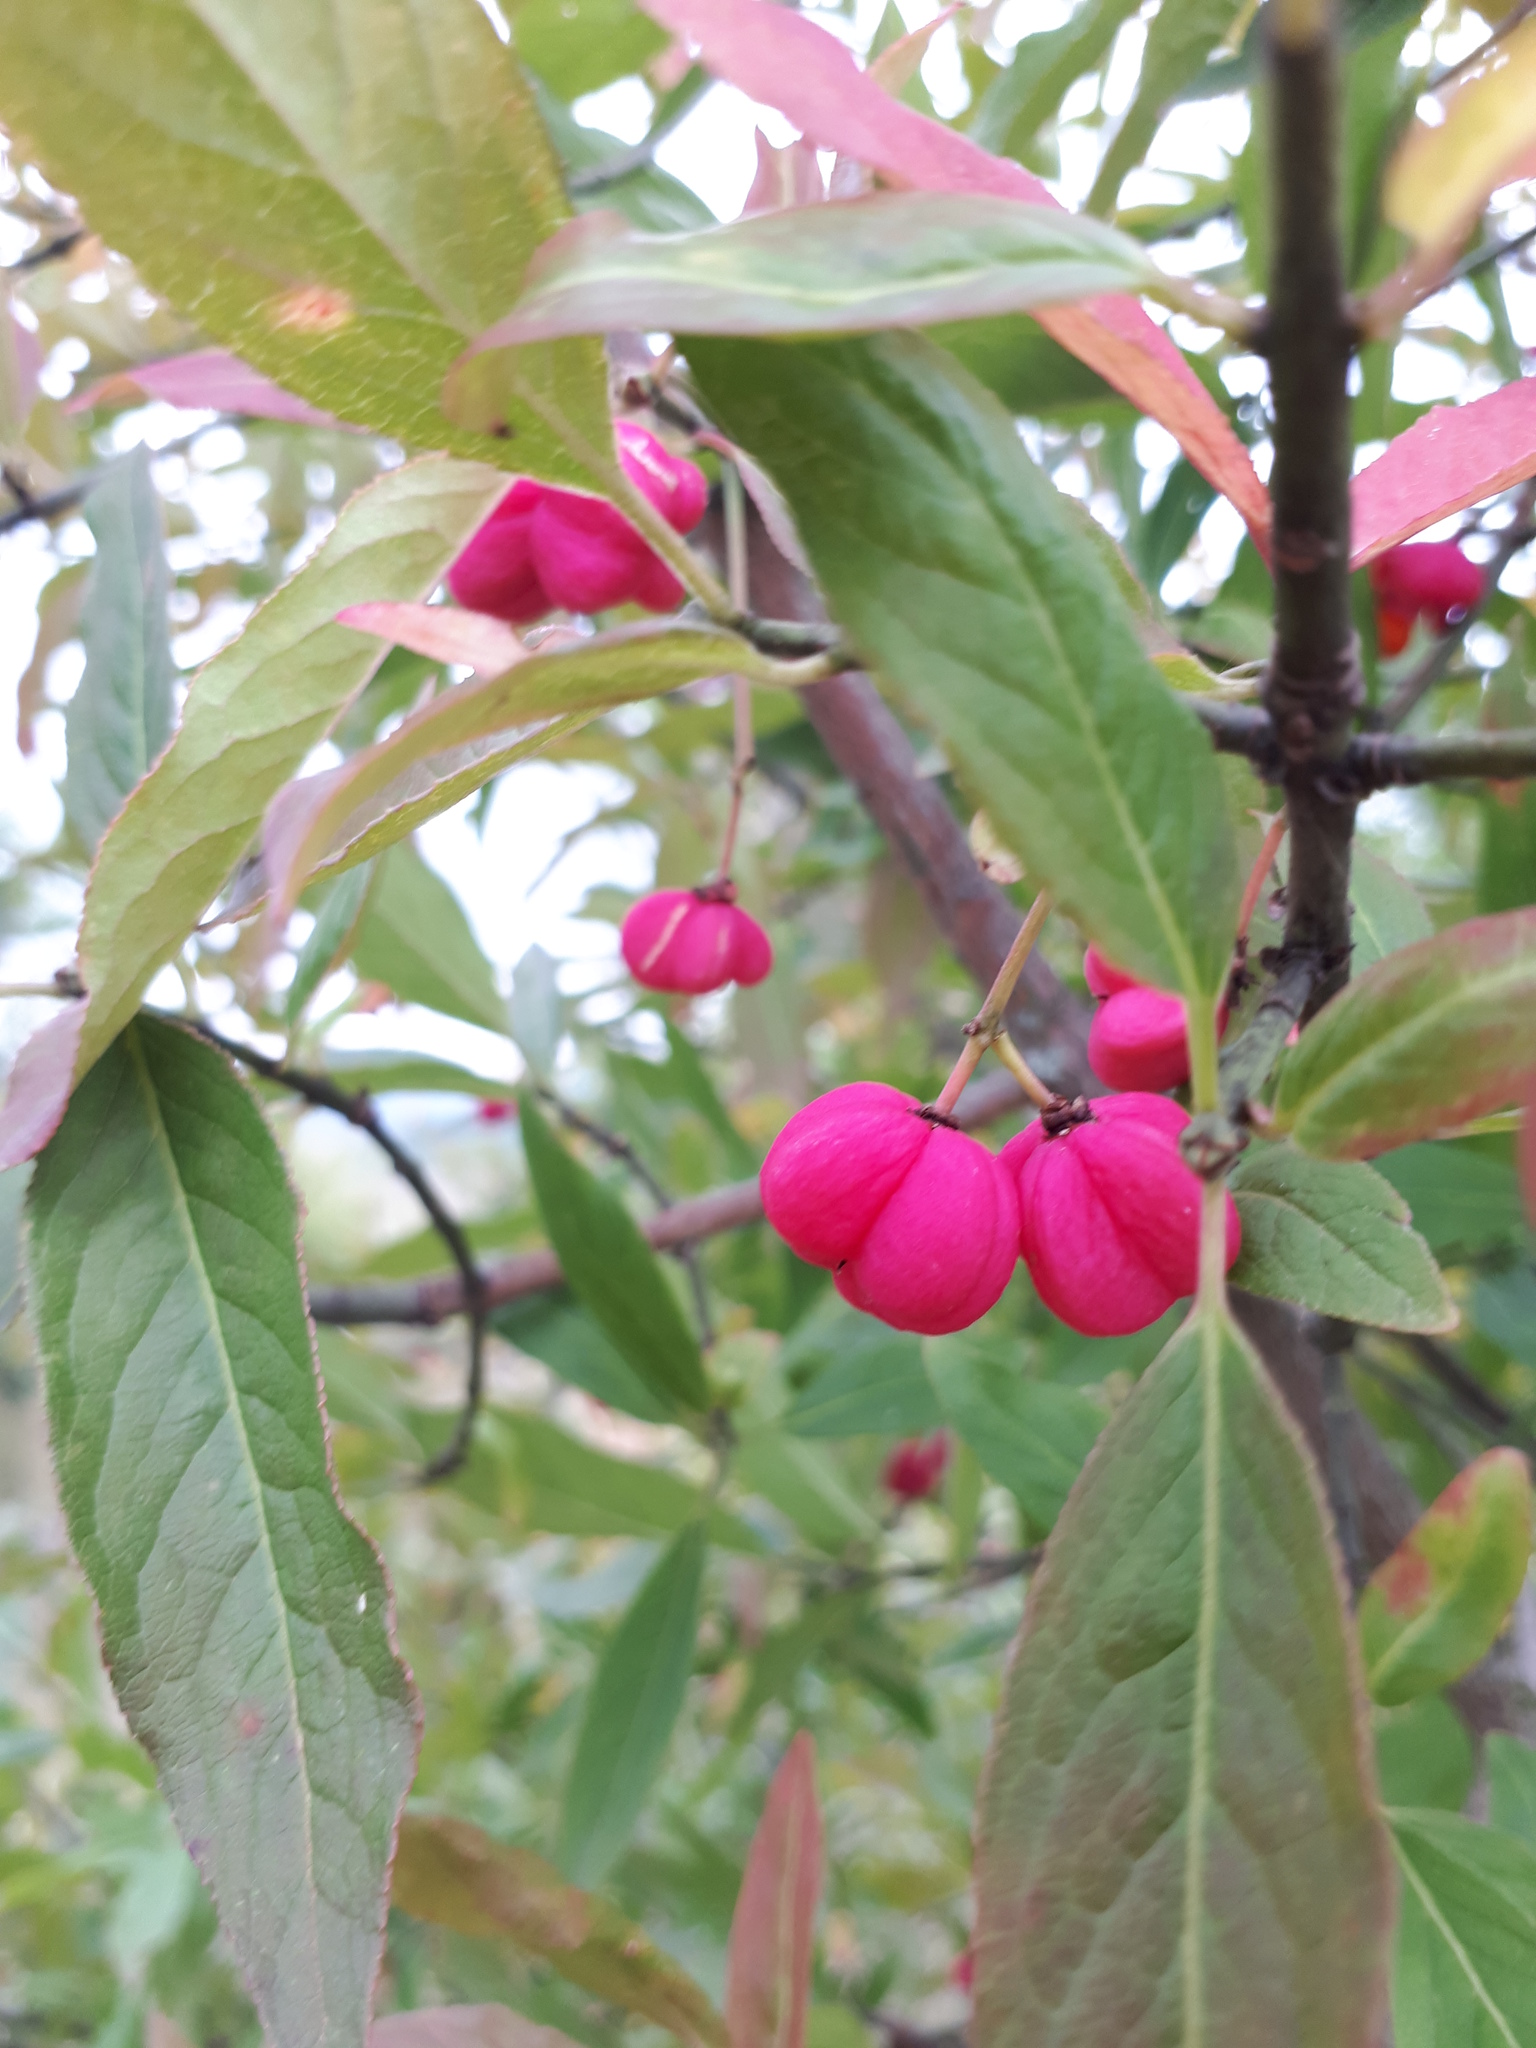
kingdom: Plantae
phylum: Tracheophyta
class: Magnoliopsida
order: Celastrales
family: Celastraceae
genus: Euonymus
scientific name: Euonymus europaeus
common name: Spindle
